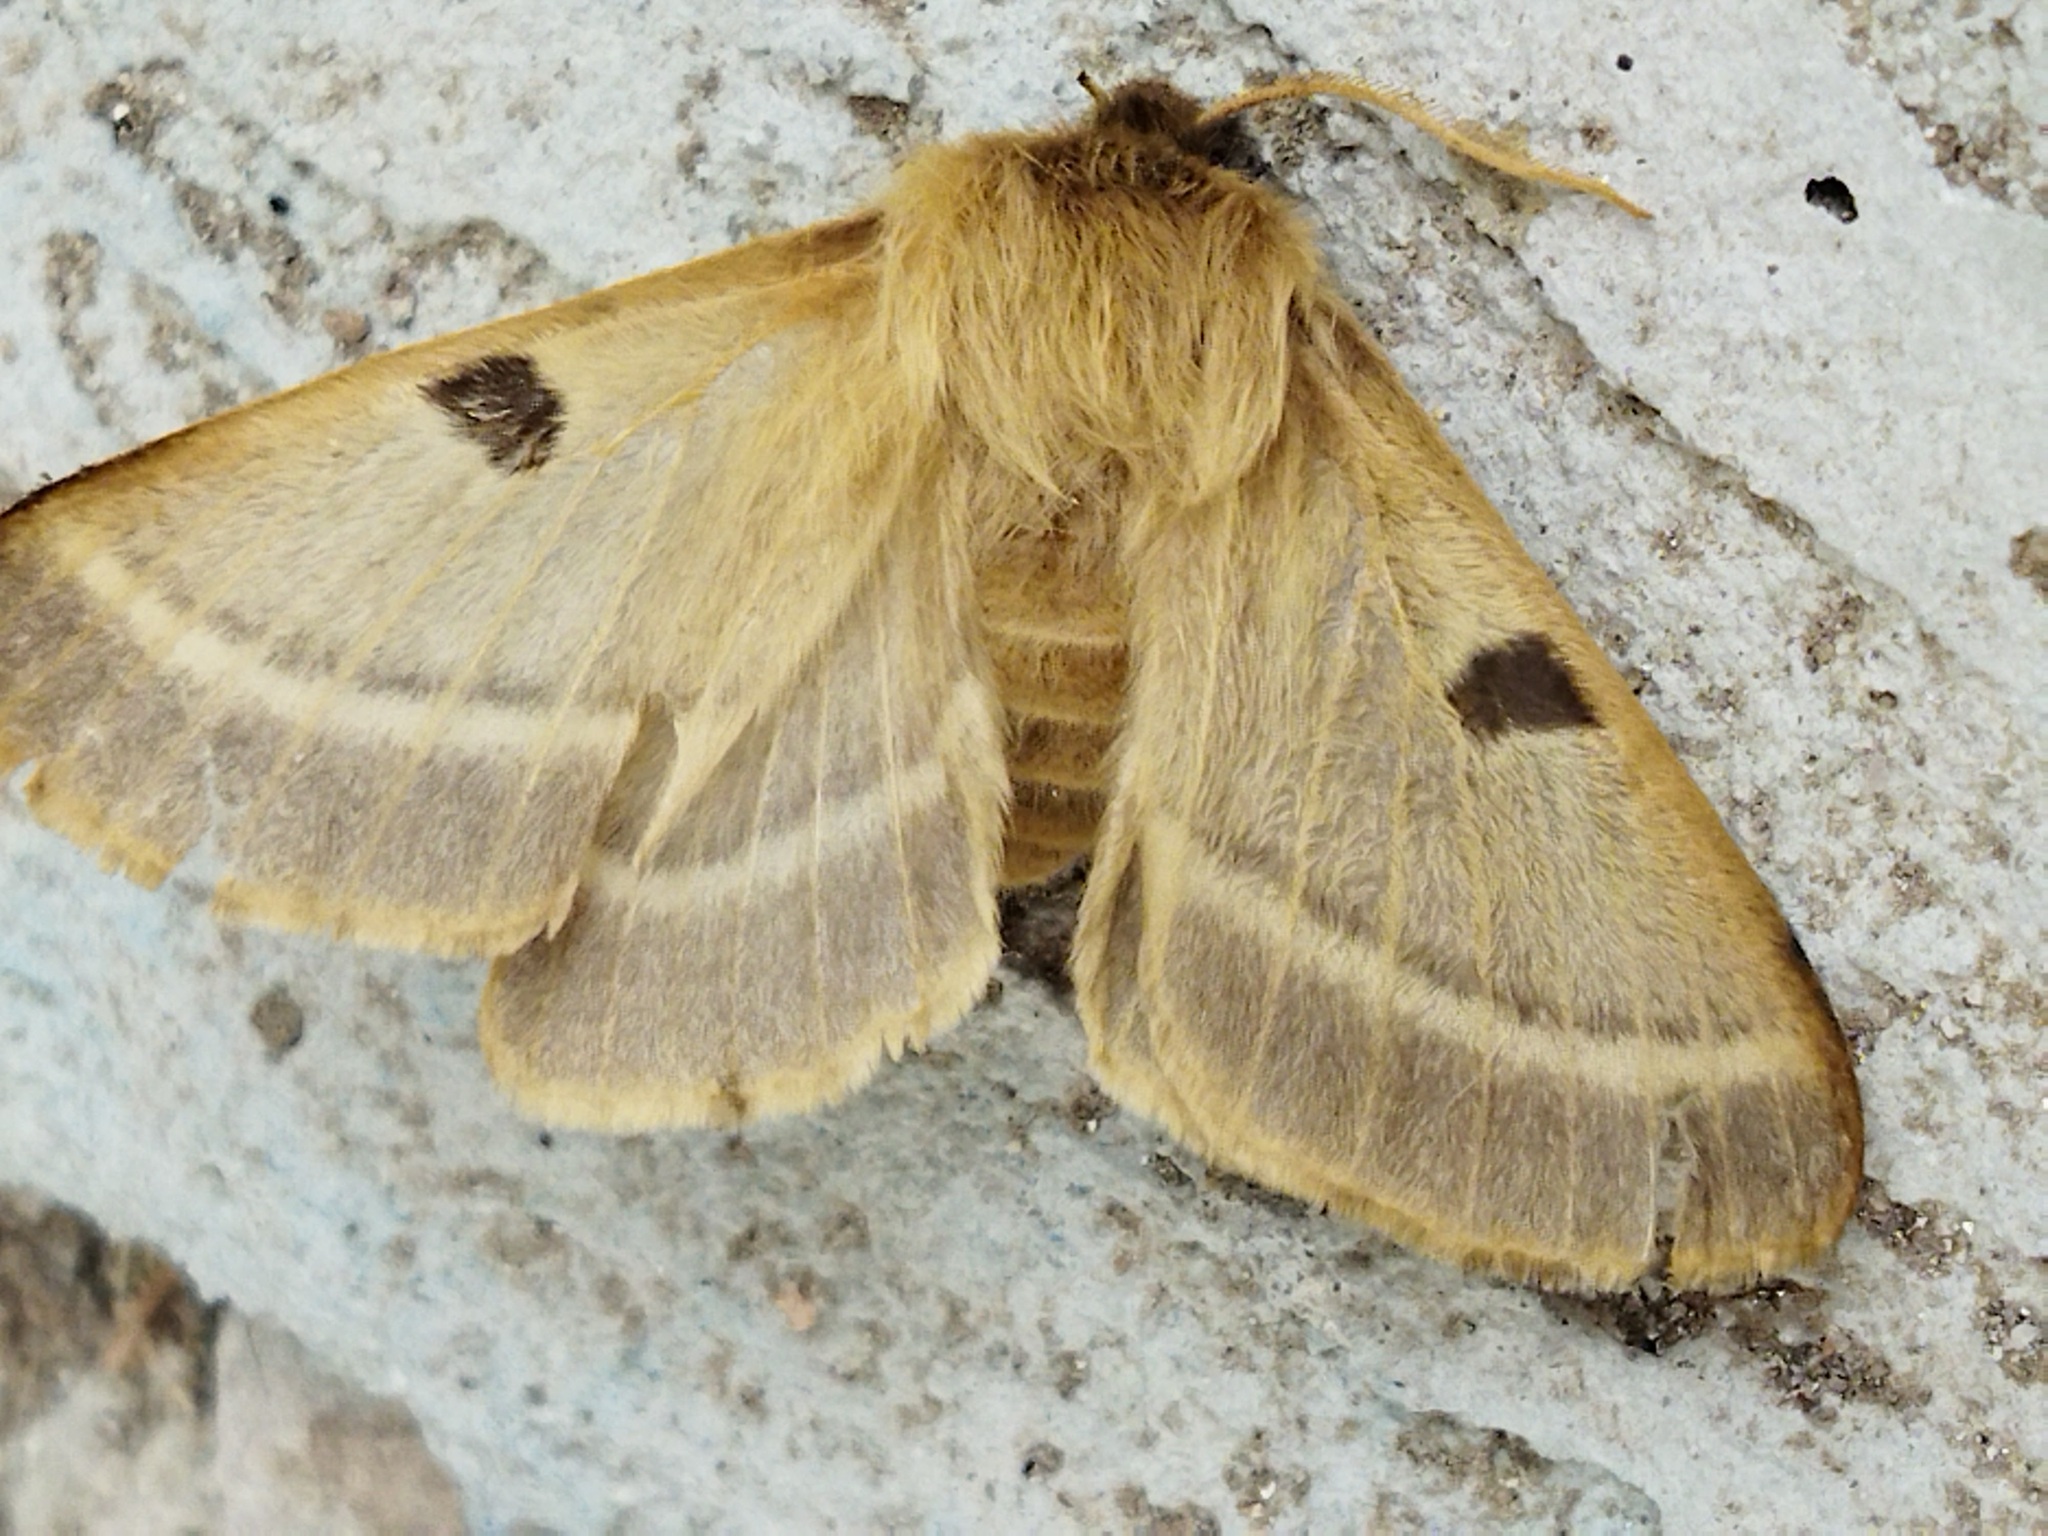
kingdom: Animalia
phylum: Arthropoda
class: Insecta
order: Lepidoptera
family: Brahmaeidae
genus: Lemonia
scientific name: Lemonia balcanica
